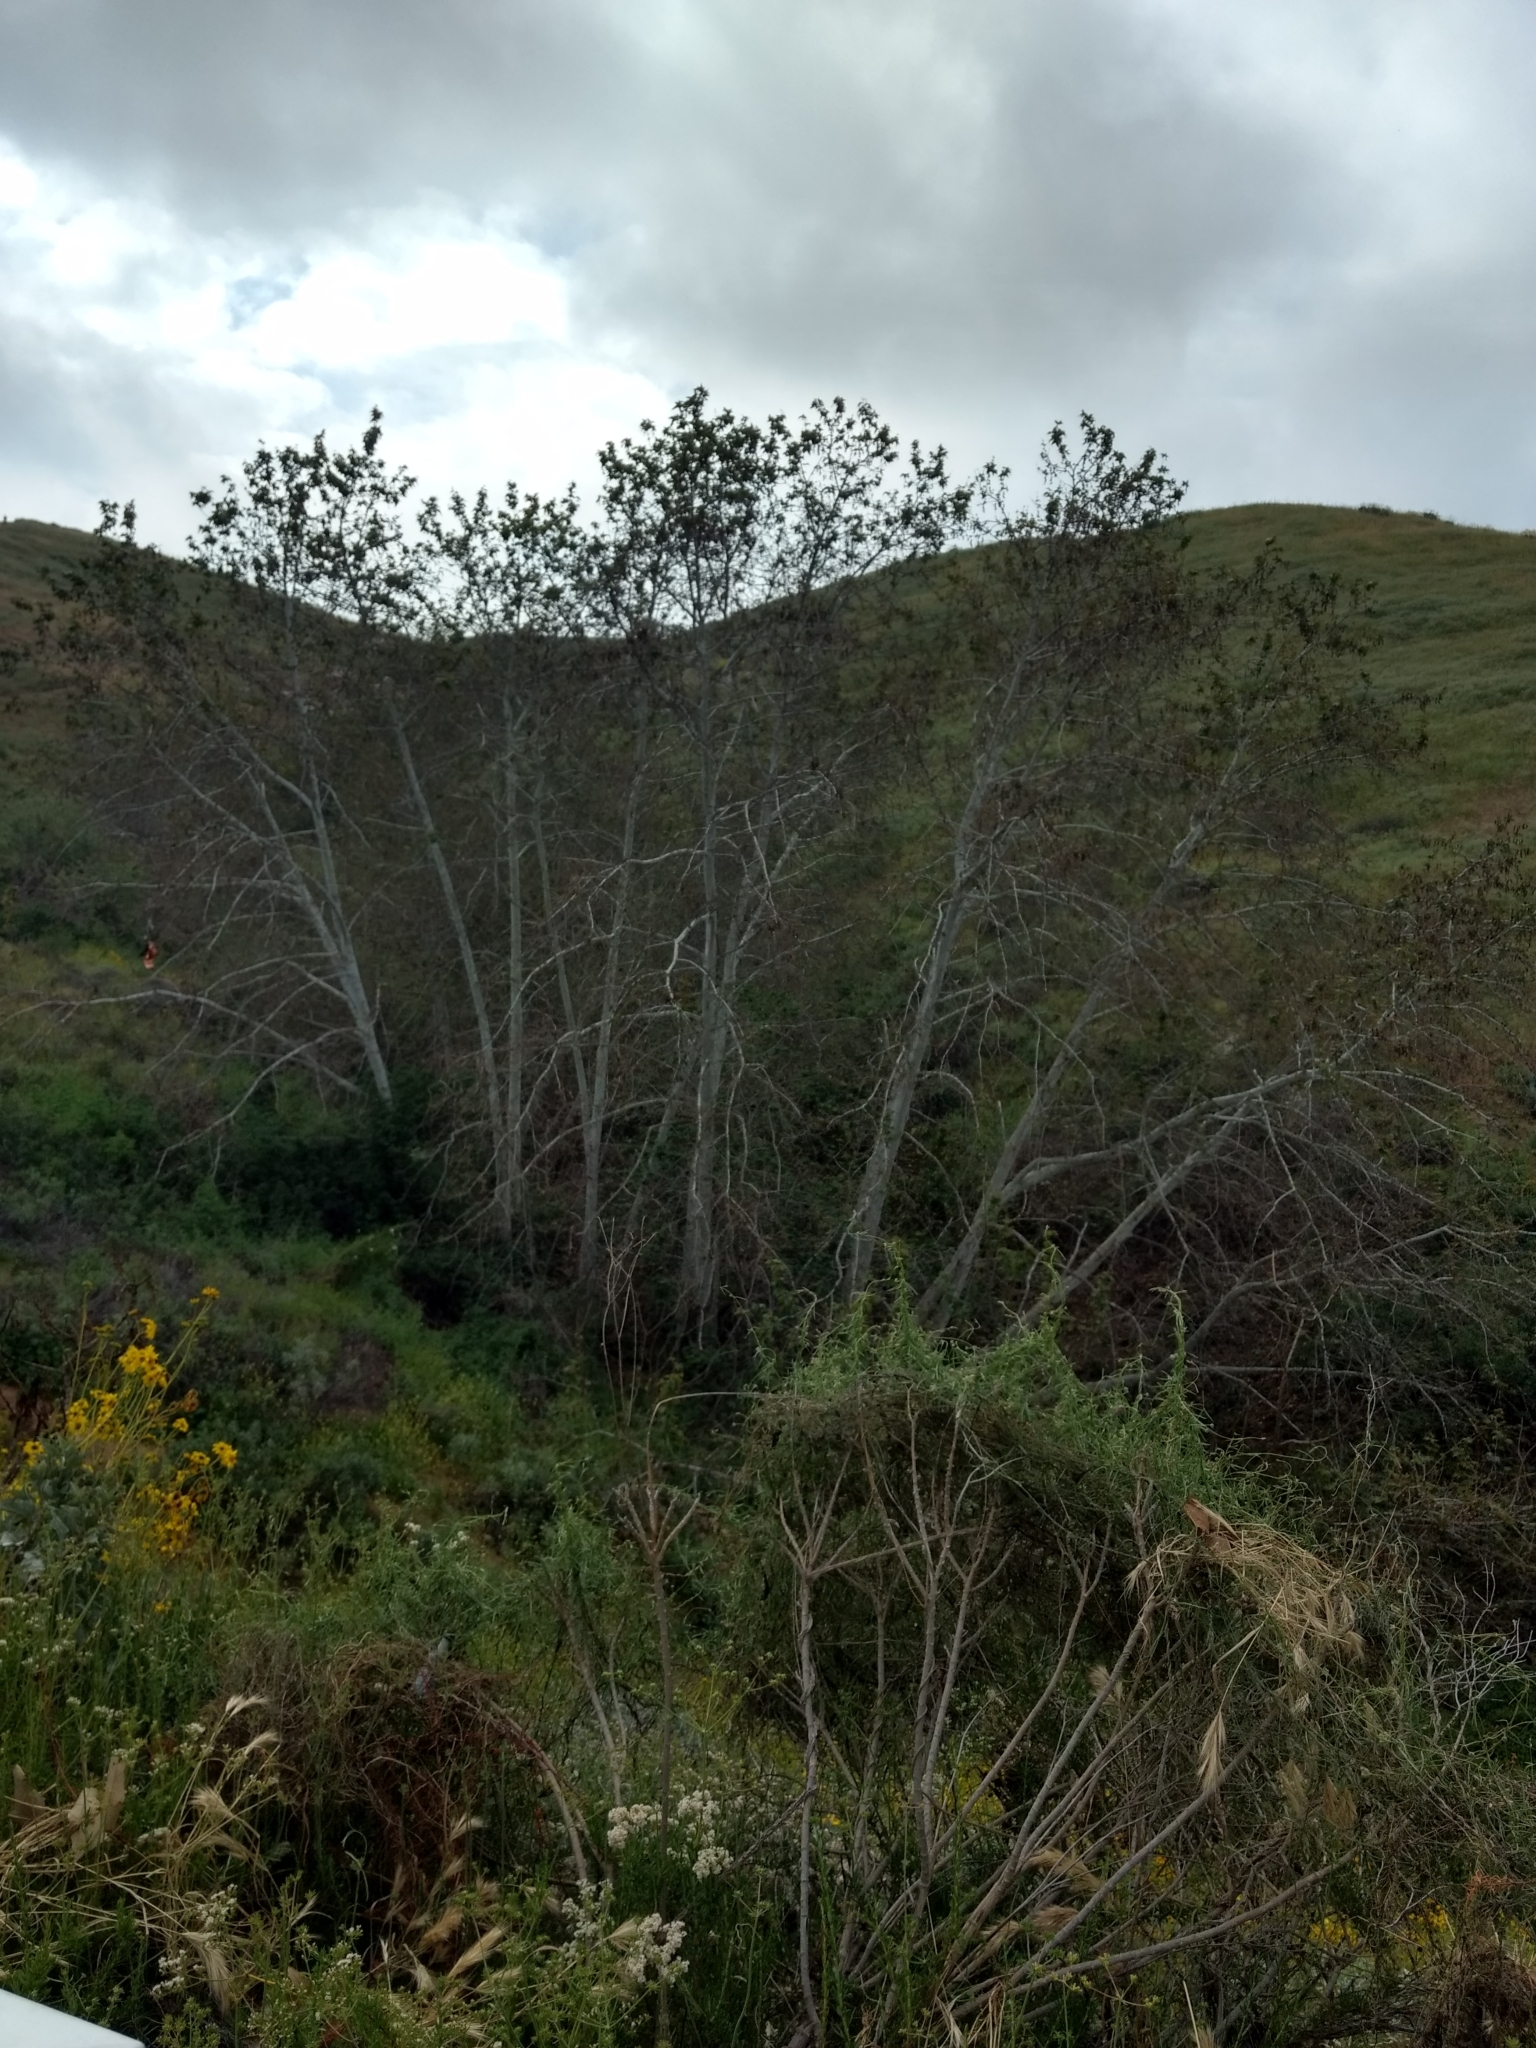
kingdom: Plantae
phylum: Tracheophyta
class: Magnoliopsida
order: Proteales
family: Platanaceae
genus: Platanus
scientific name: Platanus racemosa
